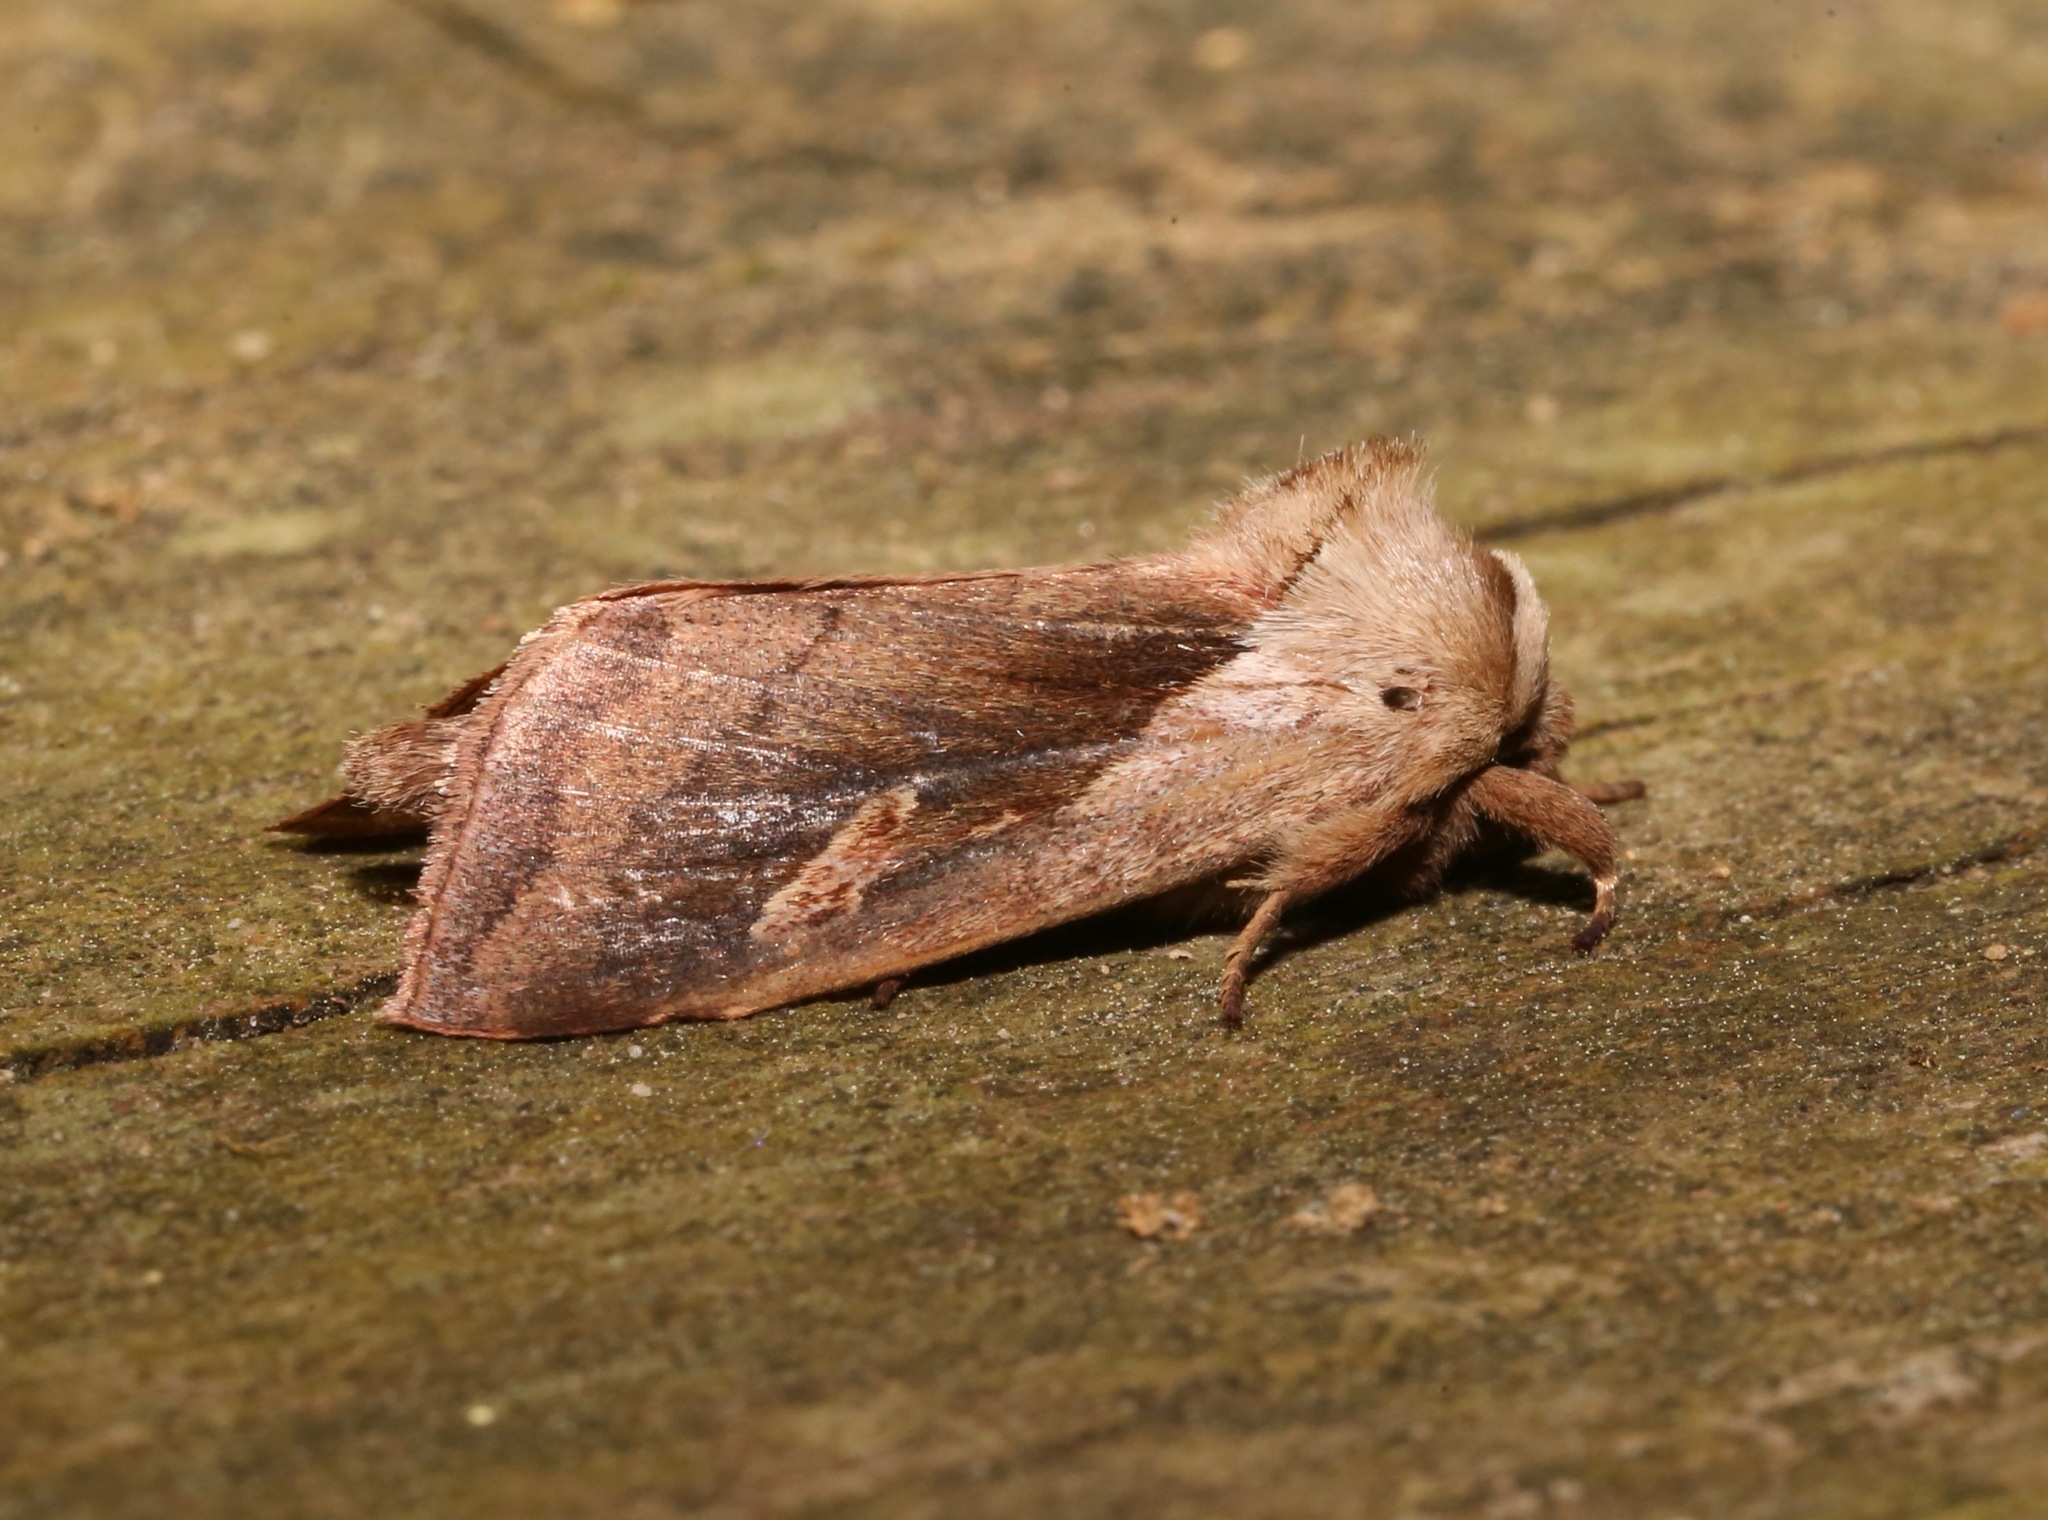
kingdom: Animalia
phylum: Arthropoda
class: Insecta
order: Lepidoptera
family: Noctuidae
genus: Bellura
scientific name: Bellura obliqua
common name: Cattail borer moth
